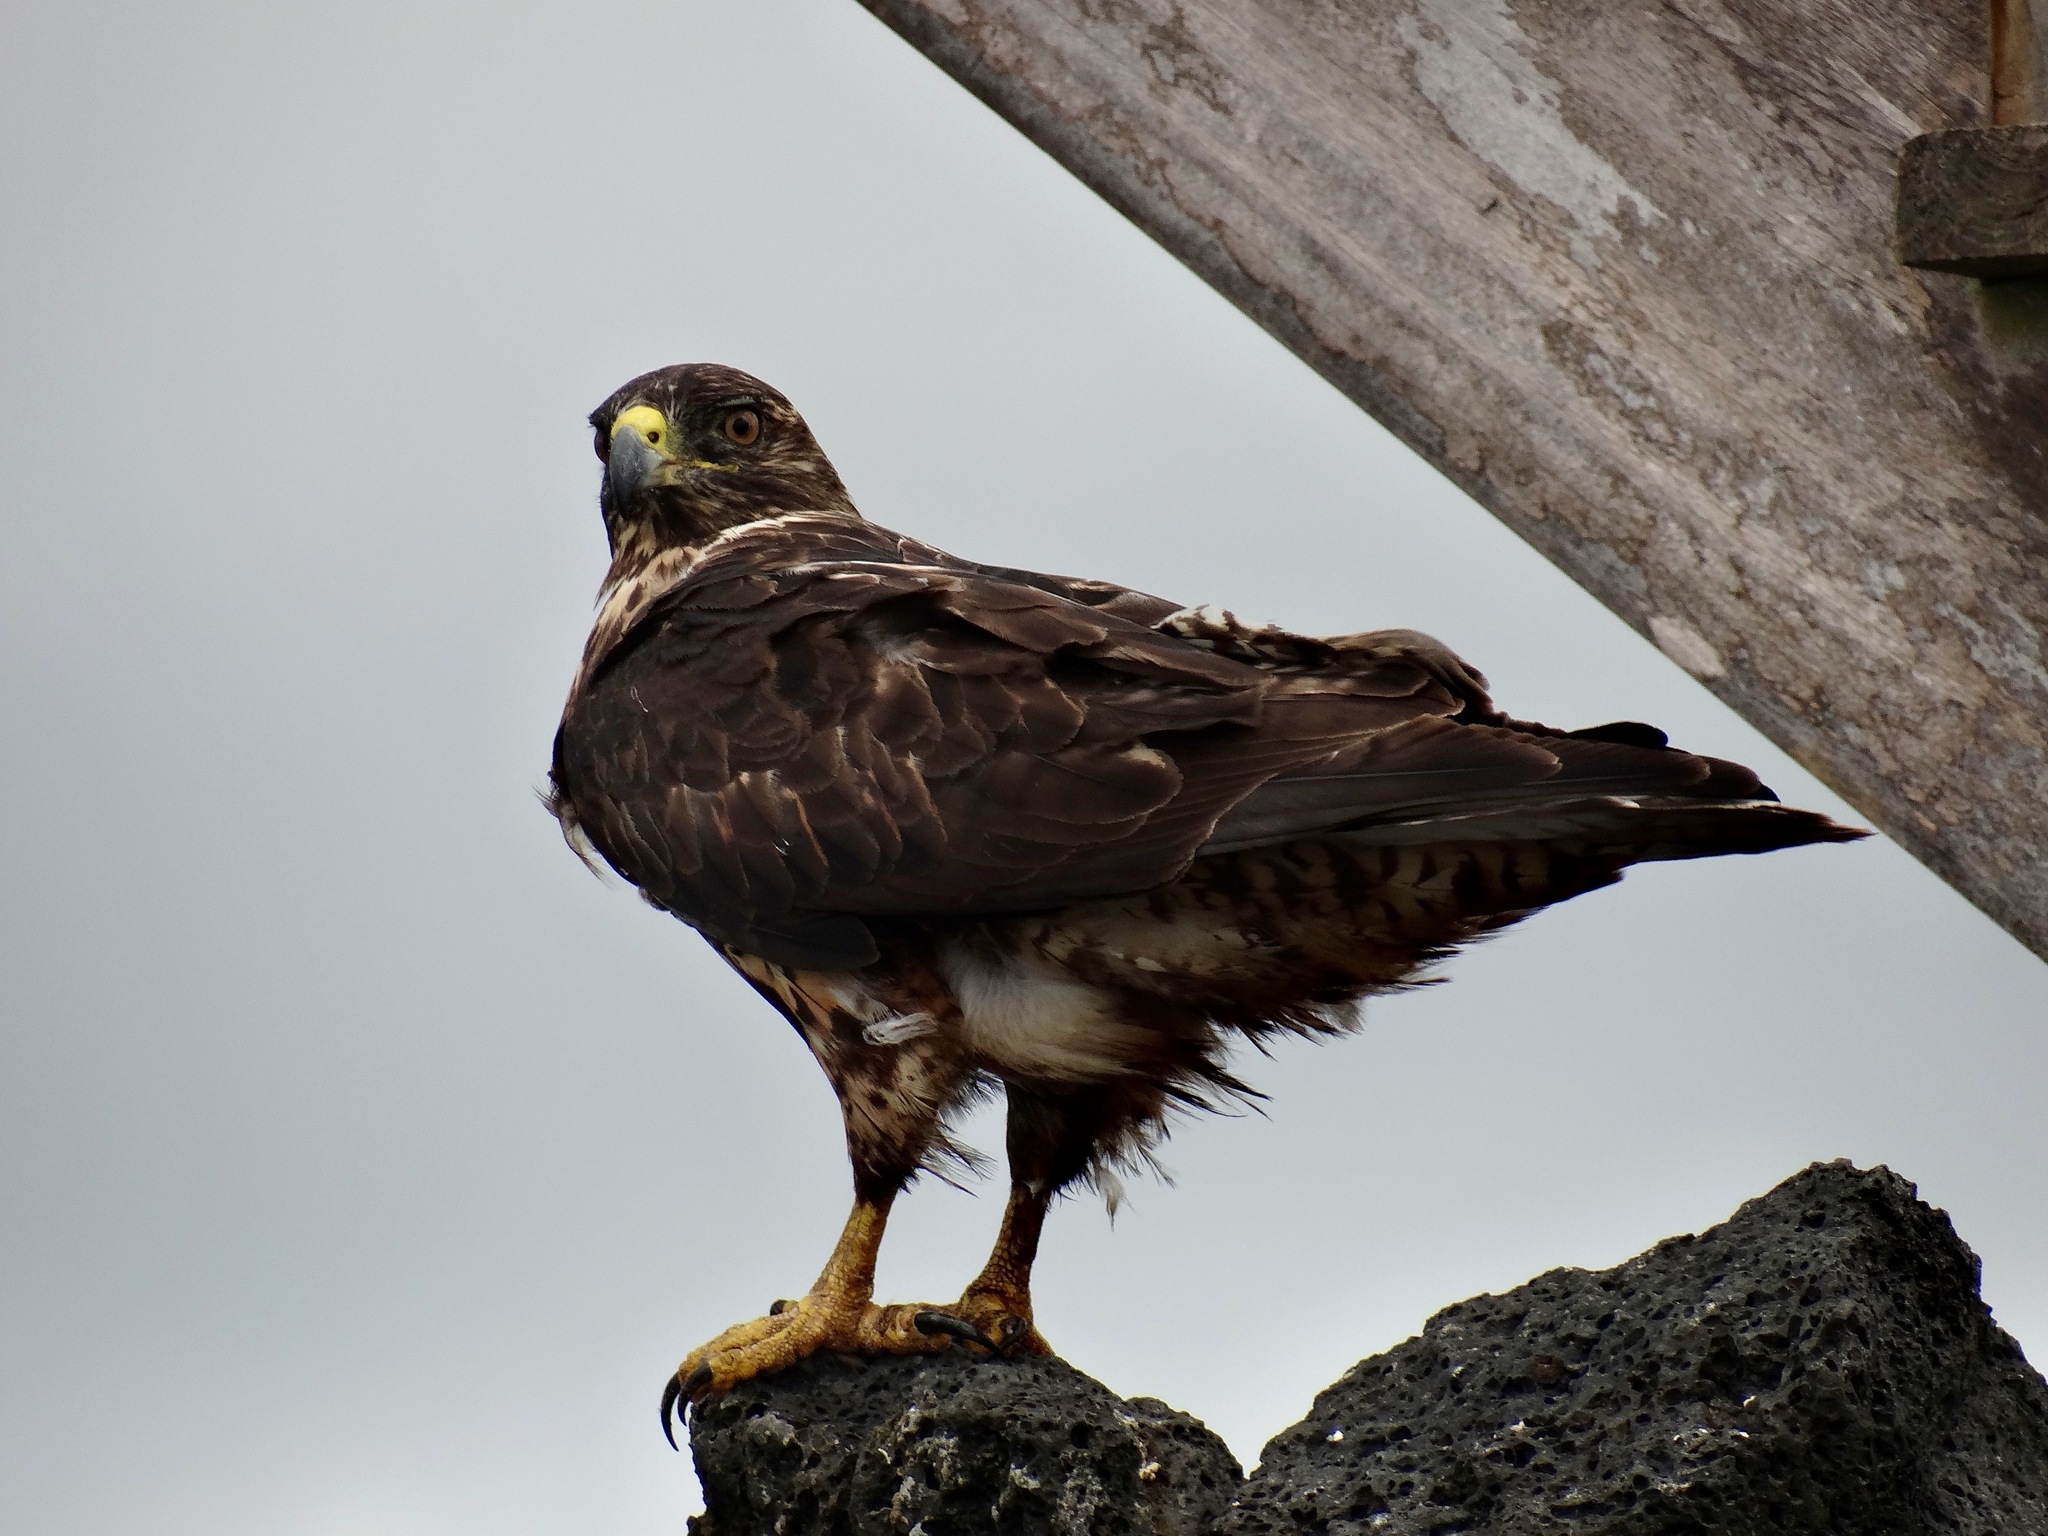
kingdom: Animalia
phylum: Chordata
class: Aves
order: Accipitriformes
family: Accipitridae
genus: Buteo
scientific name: Buteo galapagoensis
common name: Galapagos hawk
